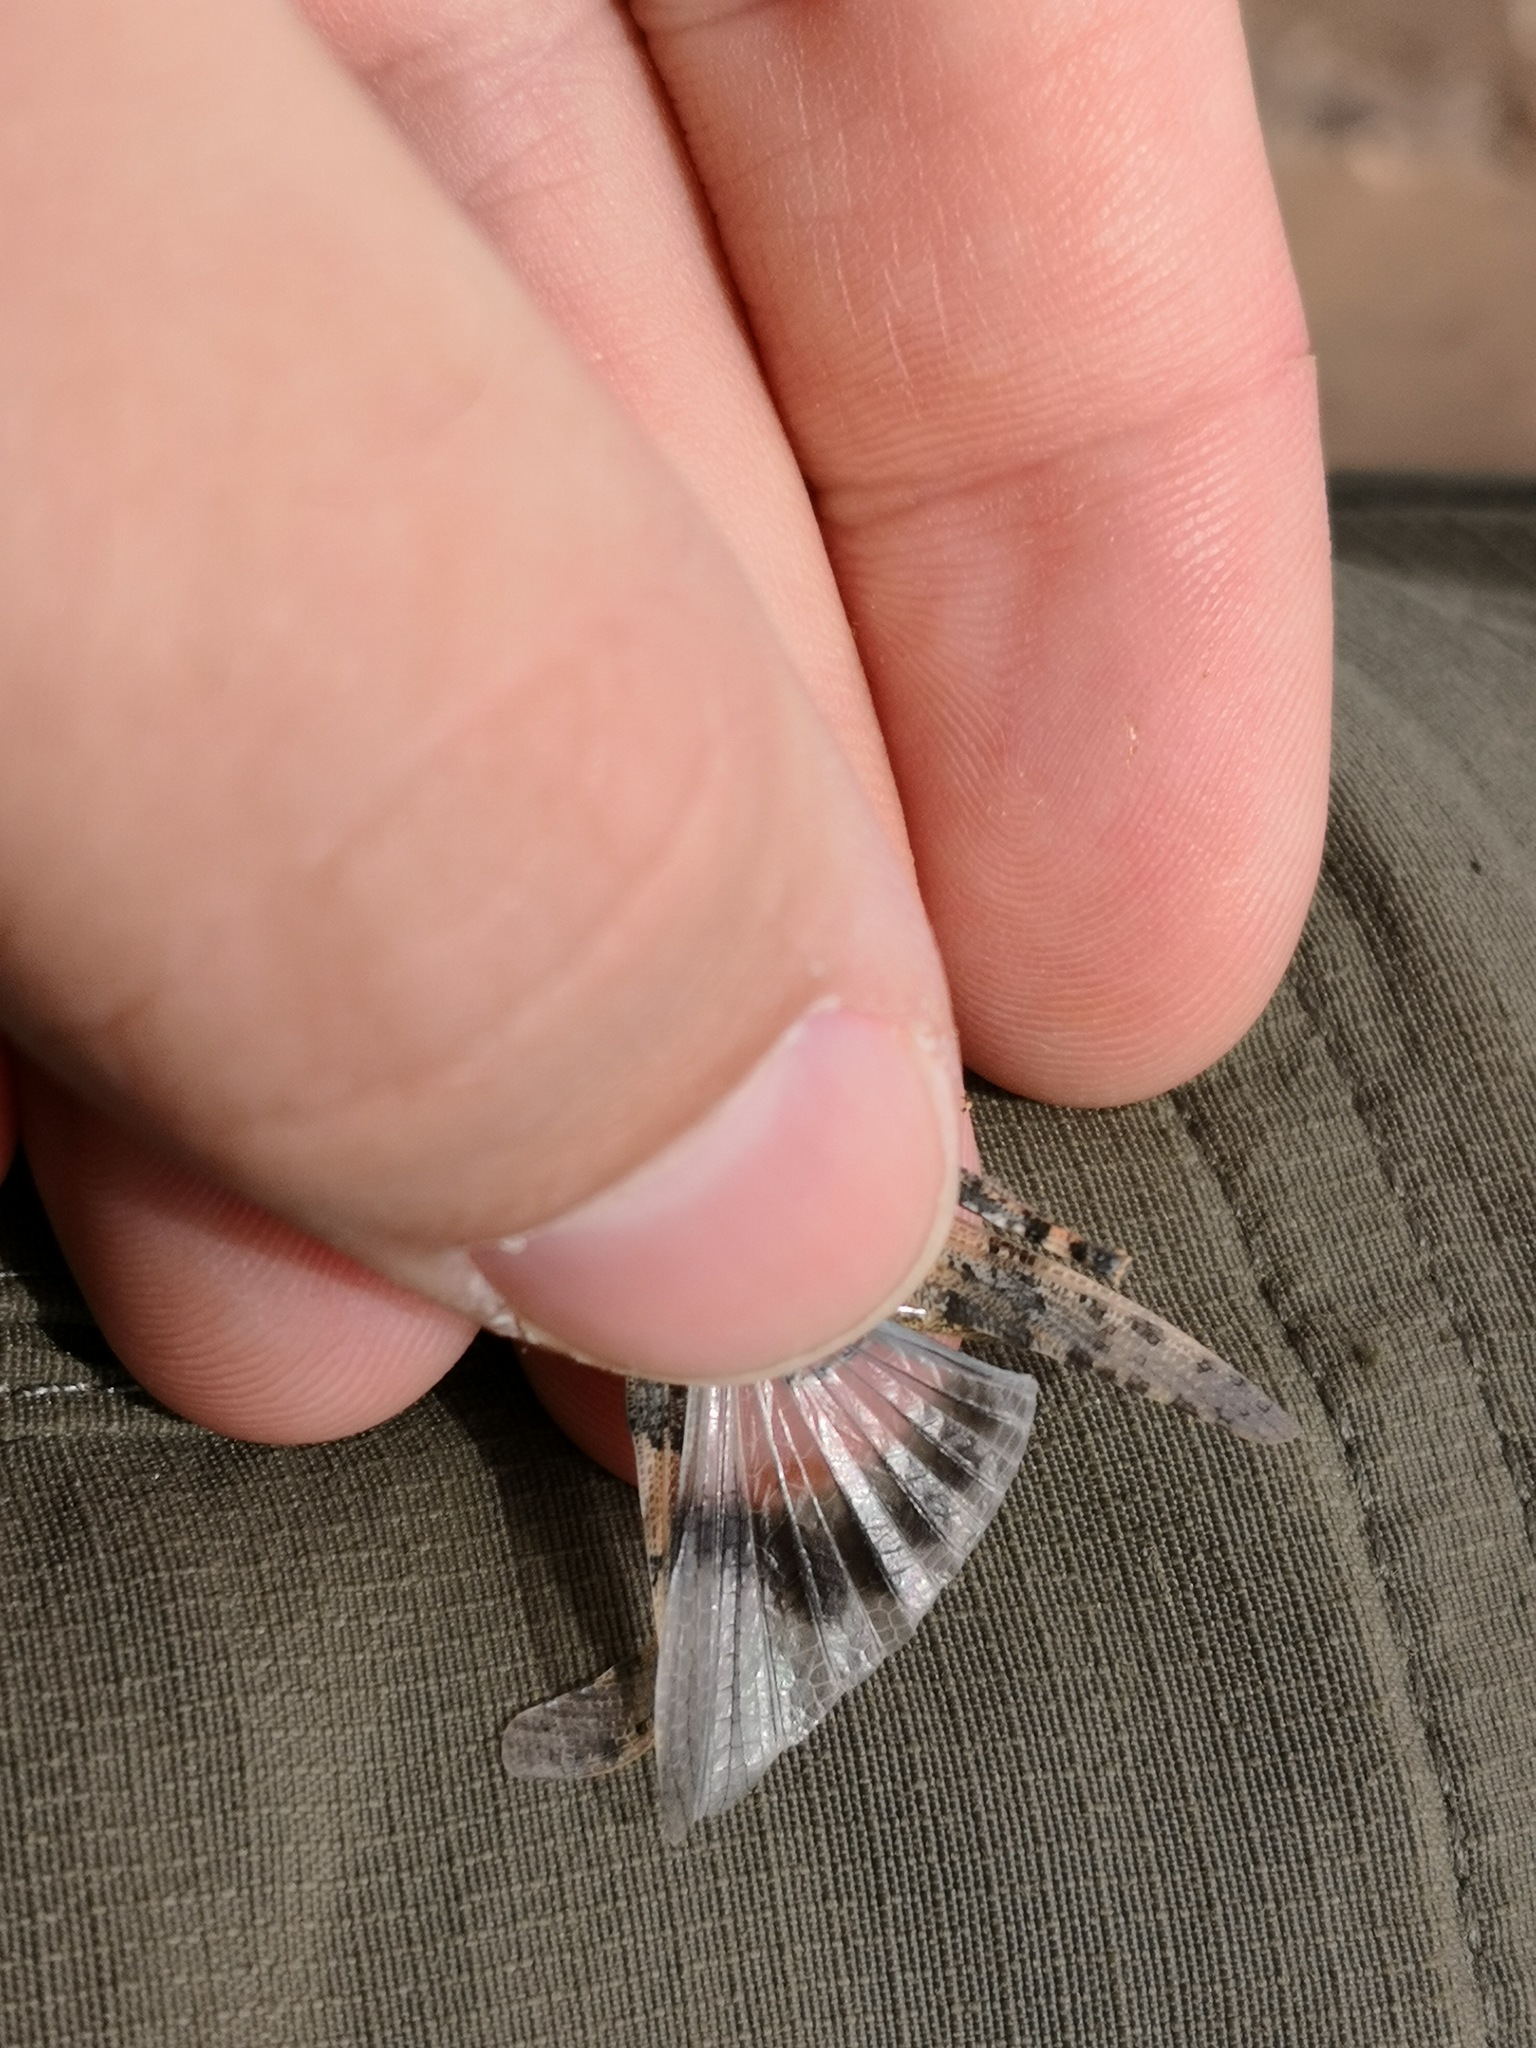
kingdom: Animalia
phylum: Arthropoda
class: Insecta
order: Orthoptera
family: Acrididae
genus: Sphingonotus
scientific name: Sphingonotus sublaevis
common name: Red sand grasshopper
